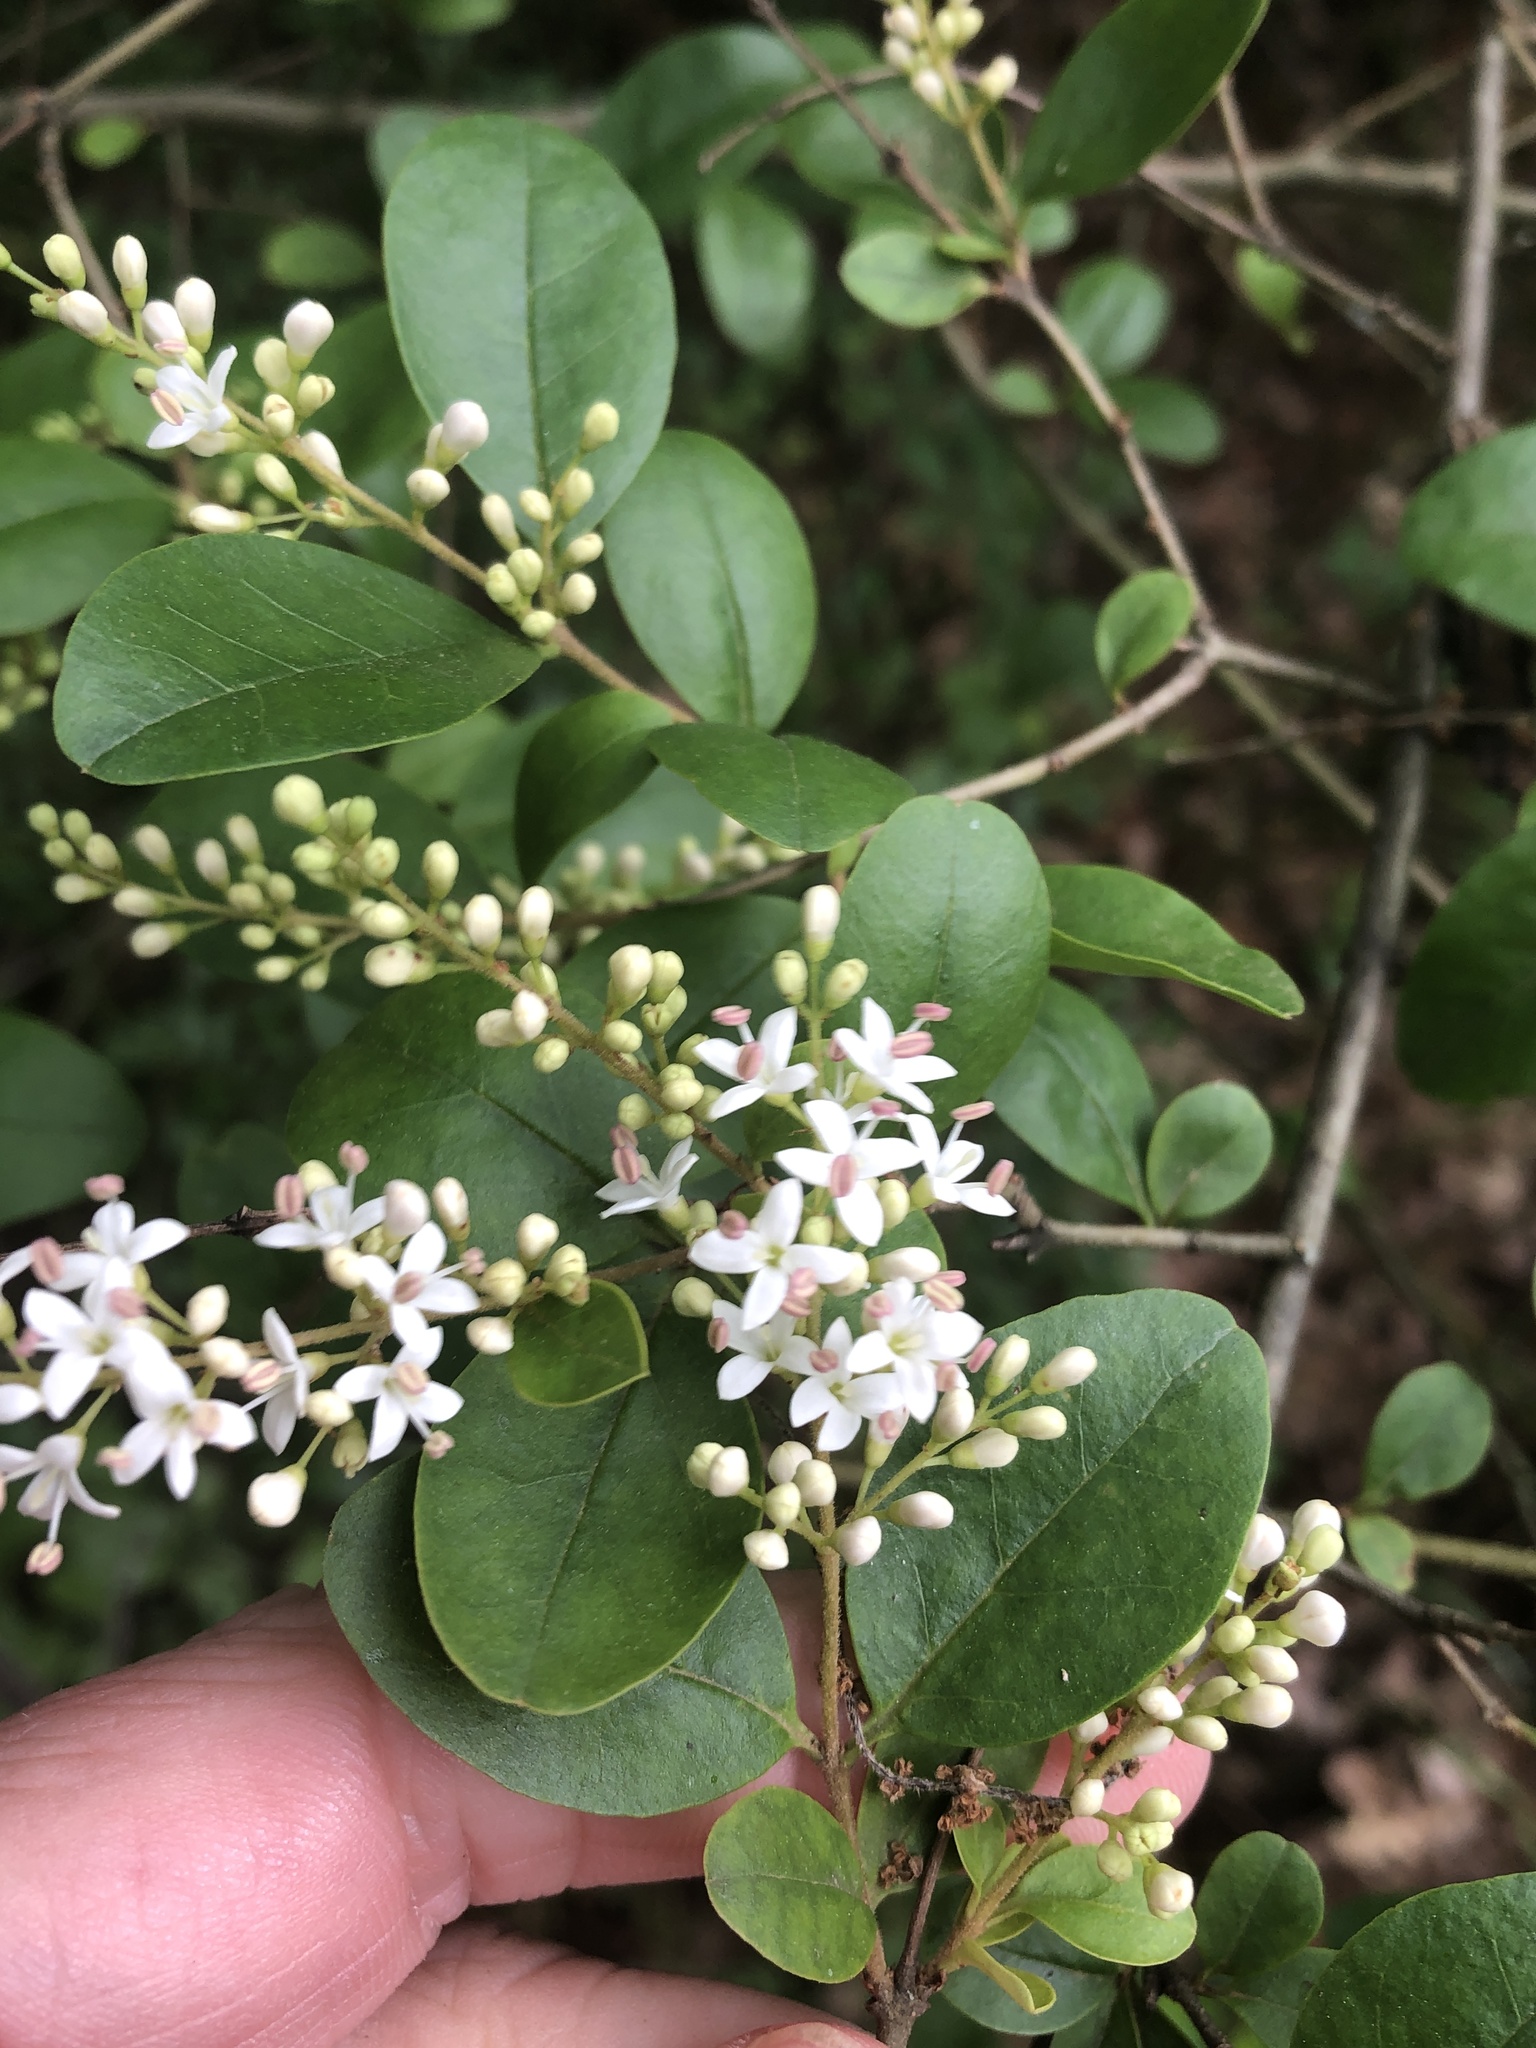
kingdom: Plantae
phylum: Tracheophyta
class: Magnoliopsida
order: Lamiales
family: Oleaceae
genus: Ligustrum
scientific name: Ligustrum sinense
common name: Chinese privet
